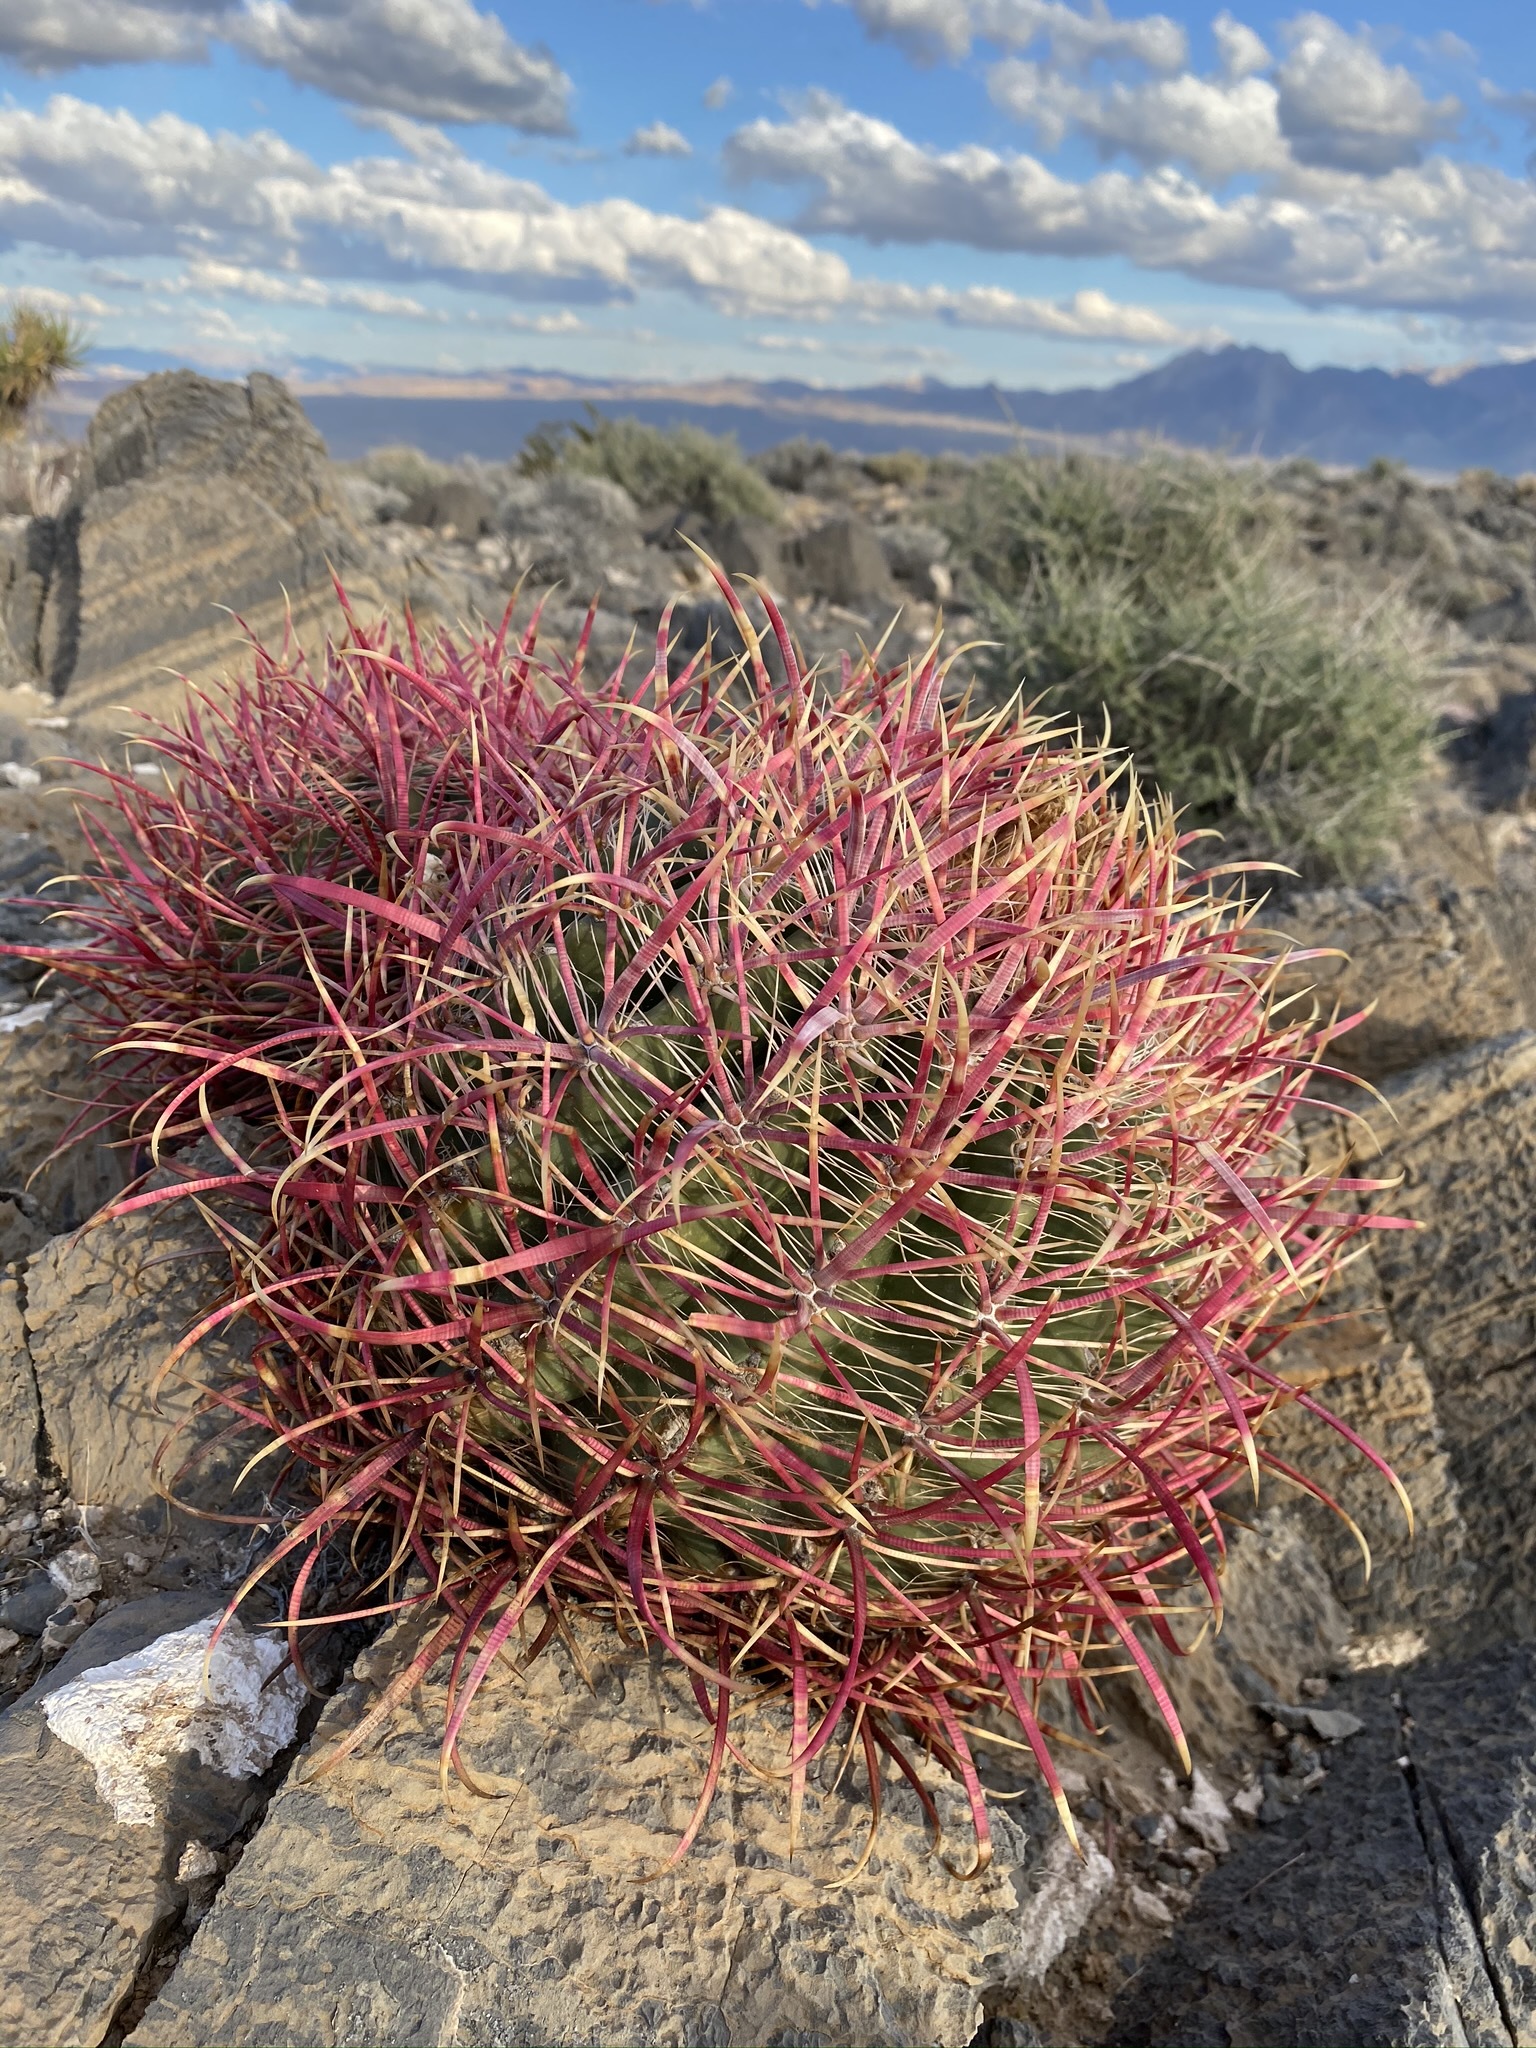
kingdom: Plantae
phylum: Tracheophyta
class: Magnoliopsida
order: Caryophyllales
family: Cactaceae
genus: Ferocactus
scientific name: Ferocactus cylindraceus
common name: California barrel cactus
